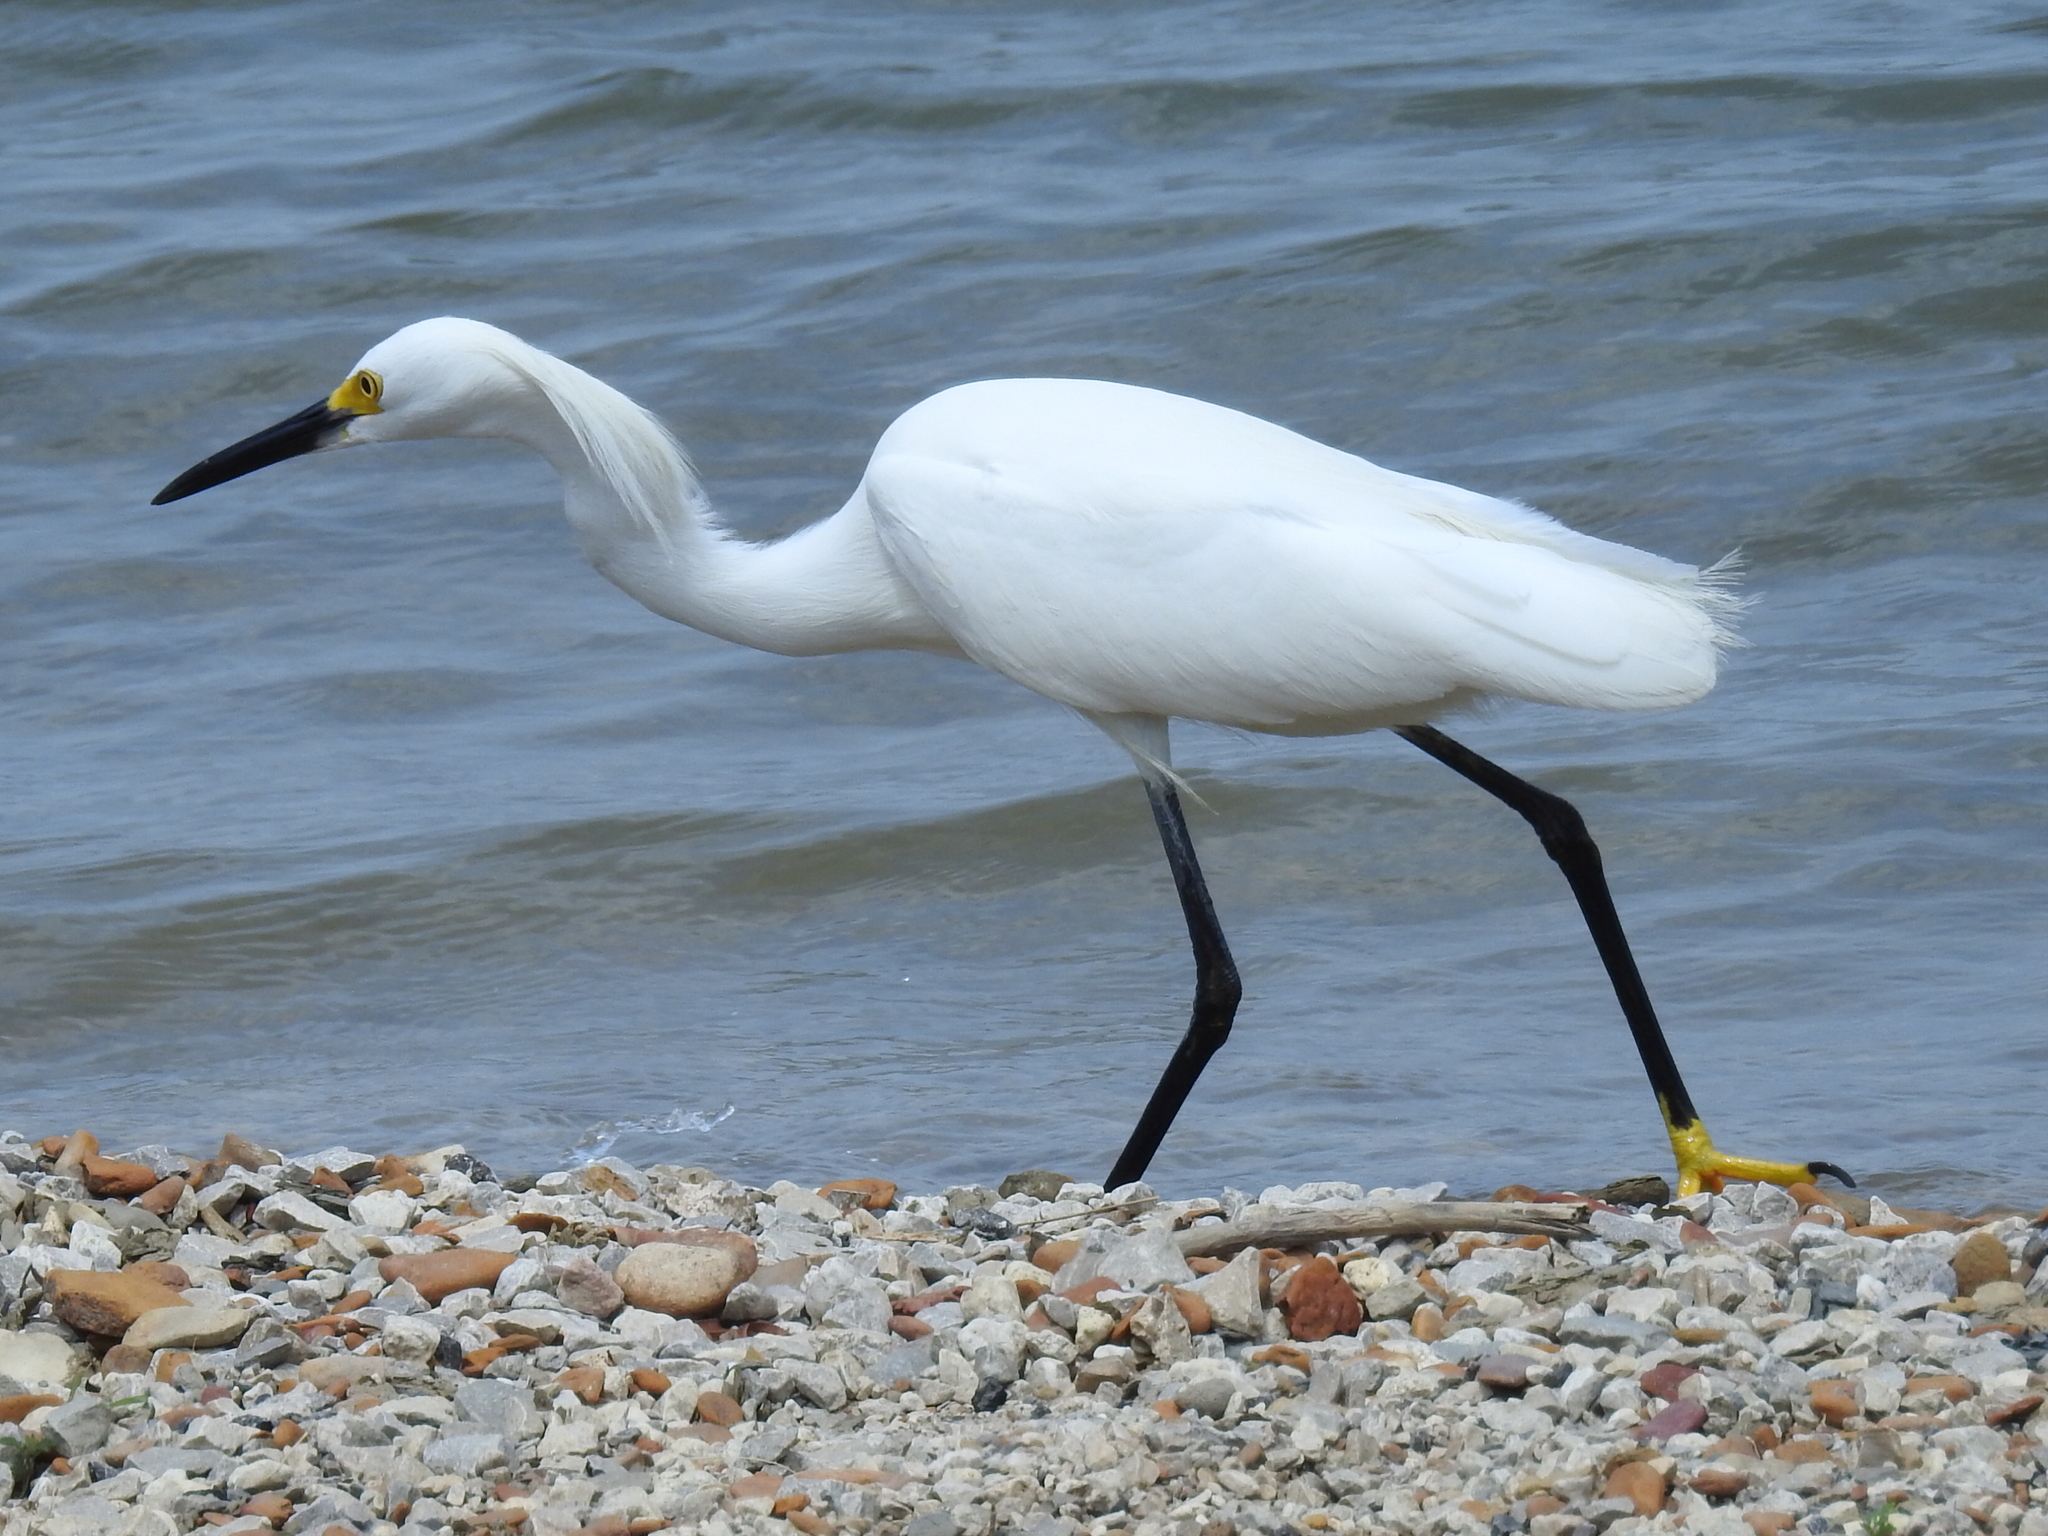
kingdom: Animalia
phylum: Chordata
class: Aves
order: Pelecaniformes
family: Ardeidae
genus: Egretta
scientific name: Egretta thula
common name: Snowy egret
